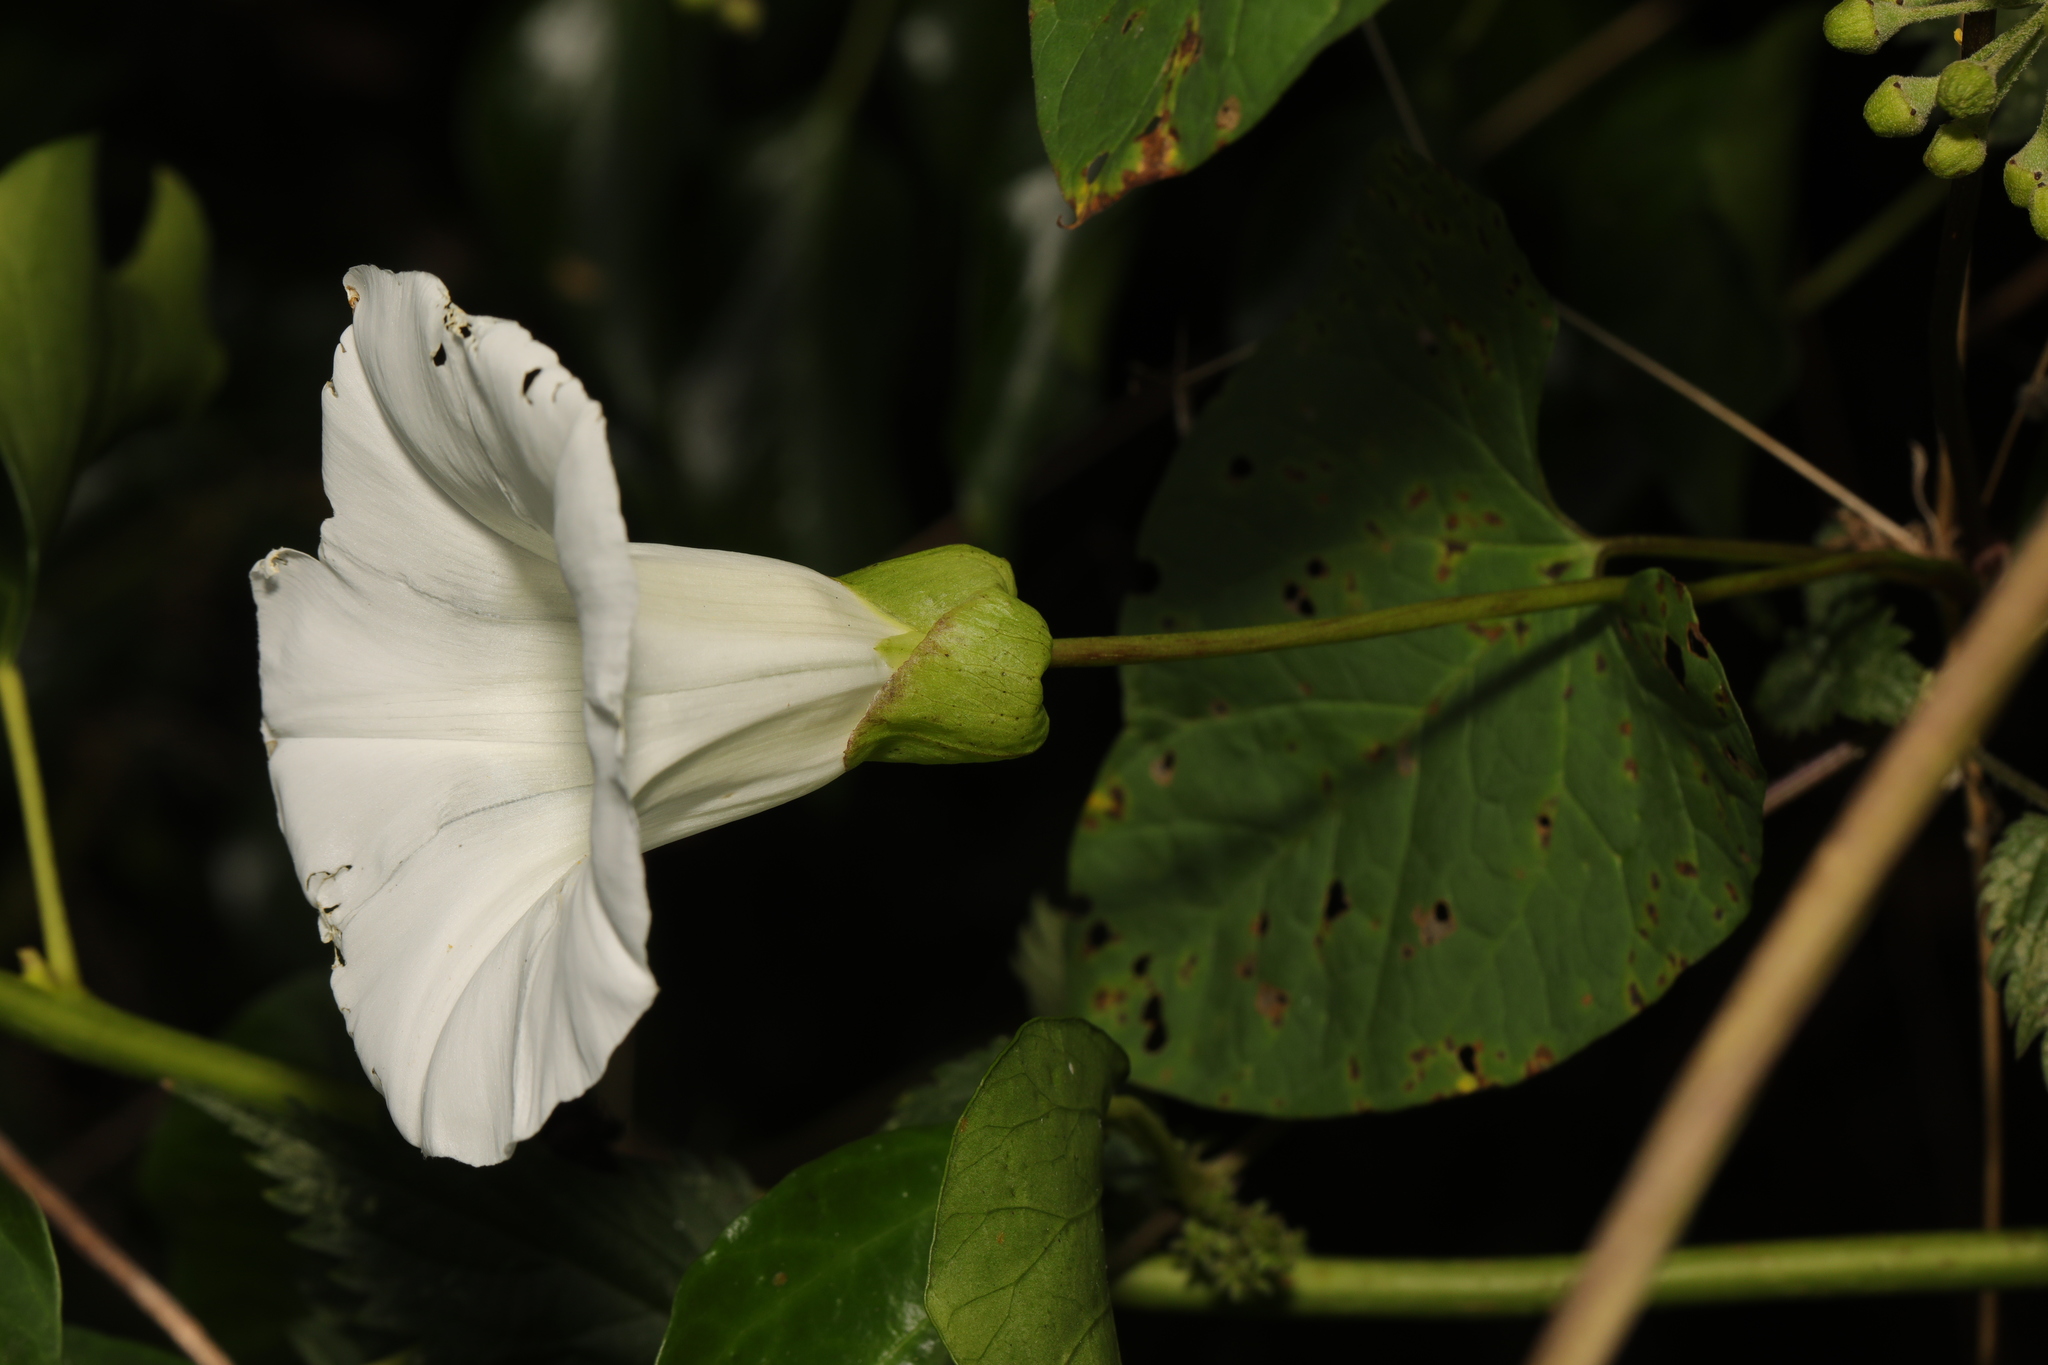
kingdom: Plantae
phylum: Tracheophyta
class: Magnoliopsida
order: Solanales
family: Convolvulaceae
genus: Calystegia
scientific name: Calystegia silvatica
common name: Large bindweed
